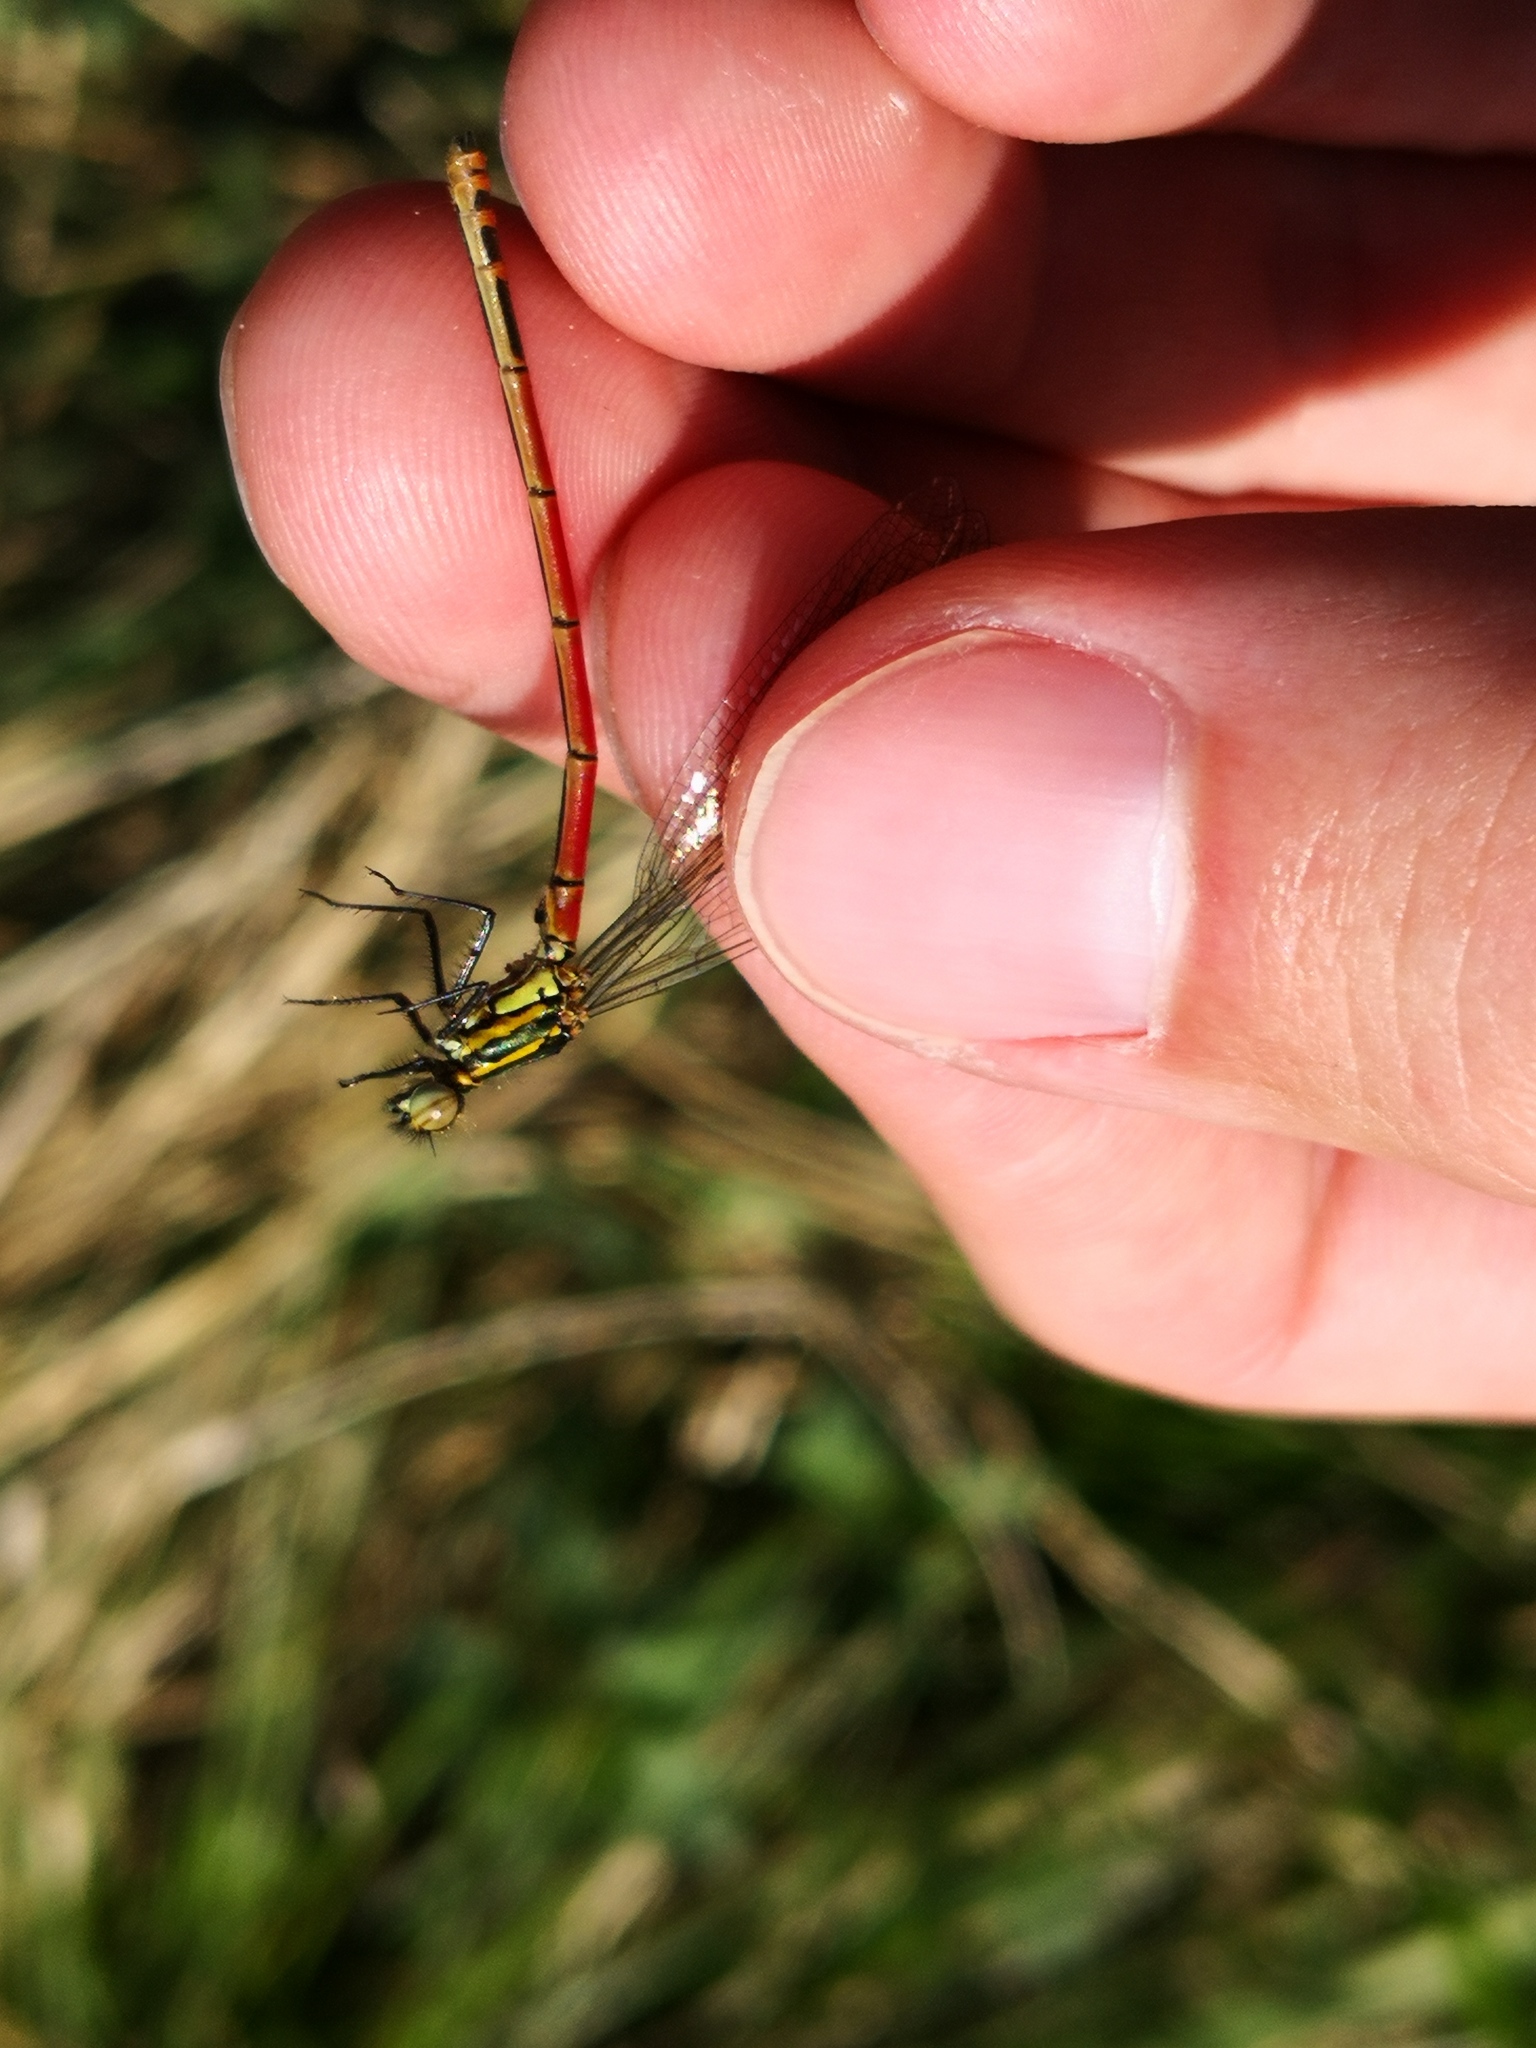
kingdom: Animalia
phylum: Arthropoda
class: Insecta
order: Odonata
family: Coenagrionidae
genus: Pyrrhosoma
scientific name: Pyrrhosoma nymphula
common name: Large red damsel
